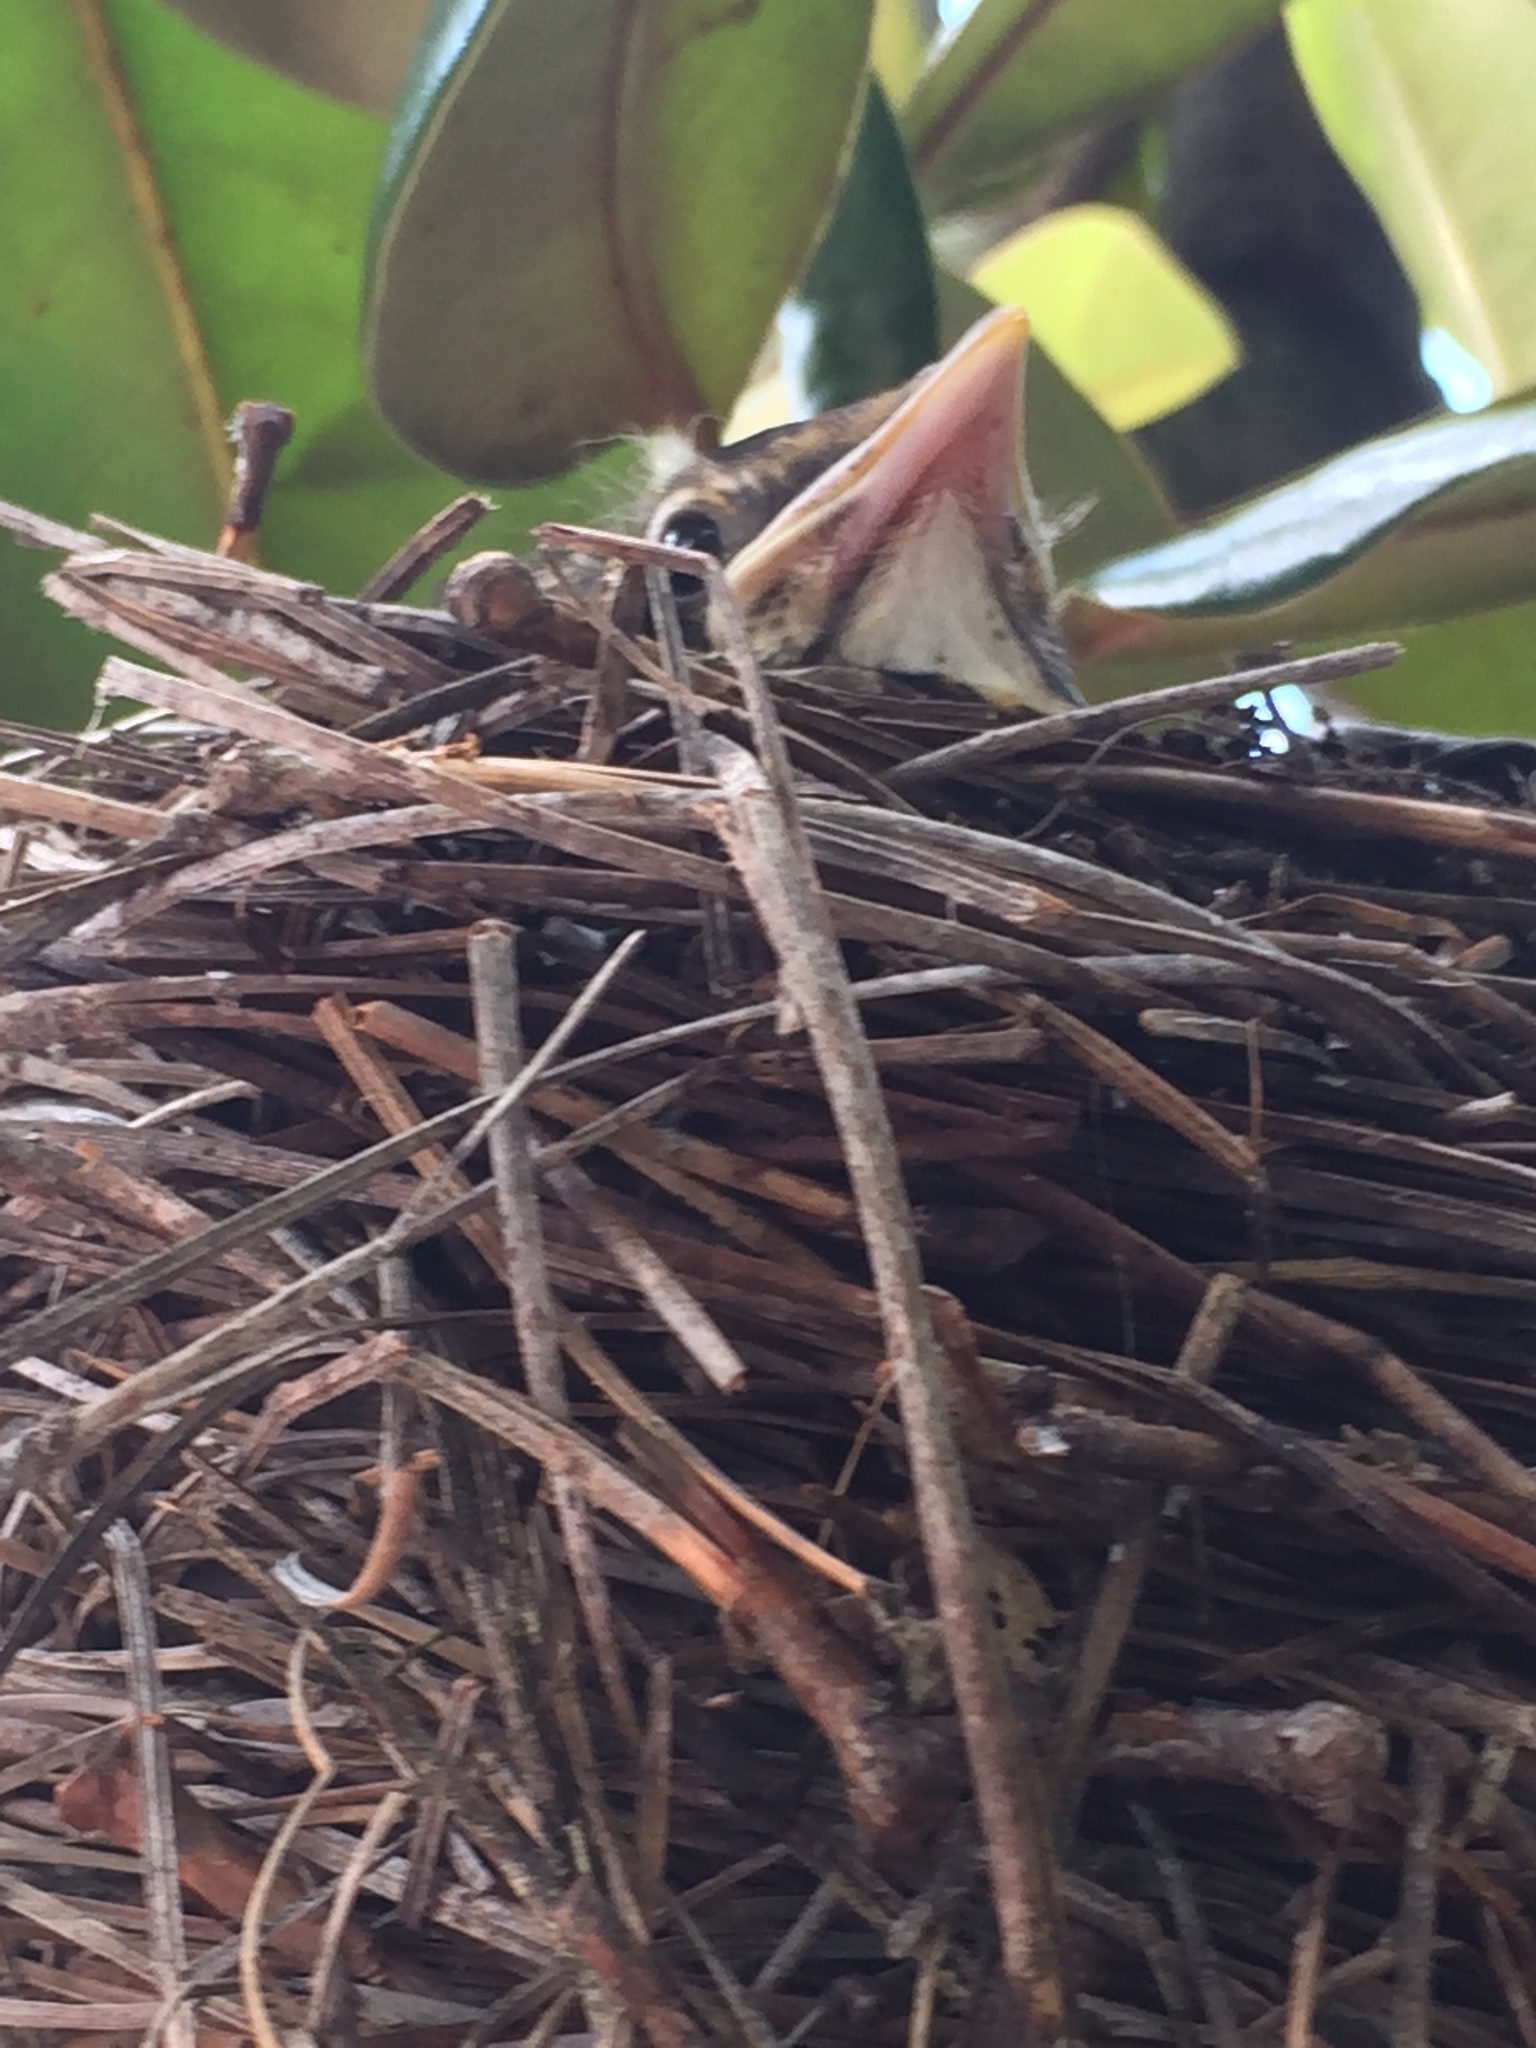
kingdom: Animalia
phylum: Chordata
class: Aves
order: Passeriformes
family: Turdidae
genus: Turdus
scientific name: Turdus migratorius
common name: American robin
